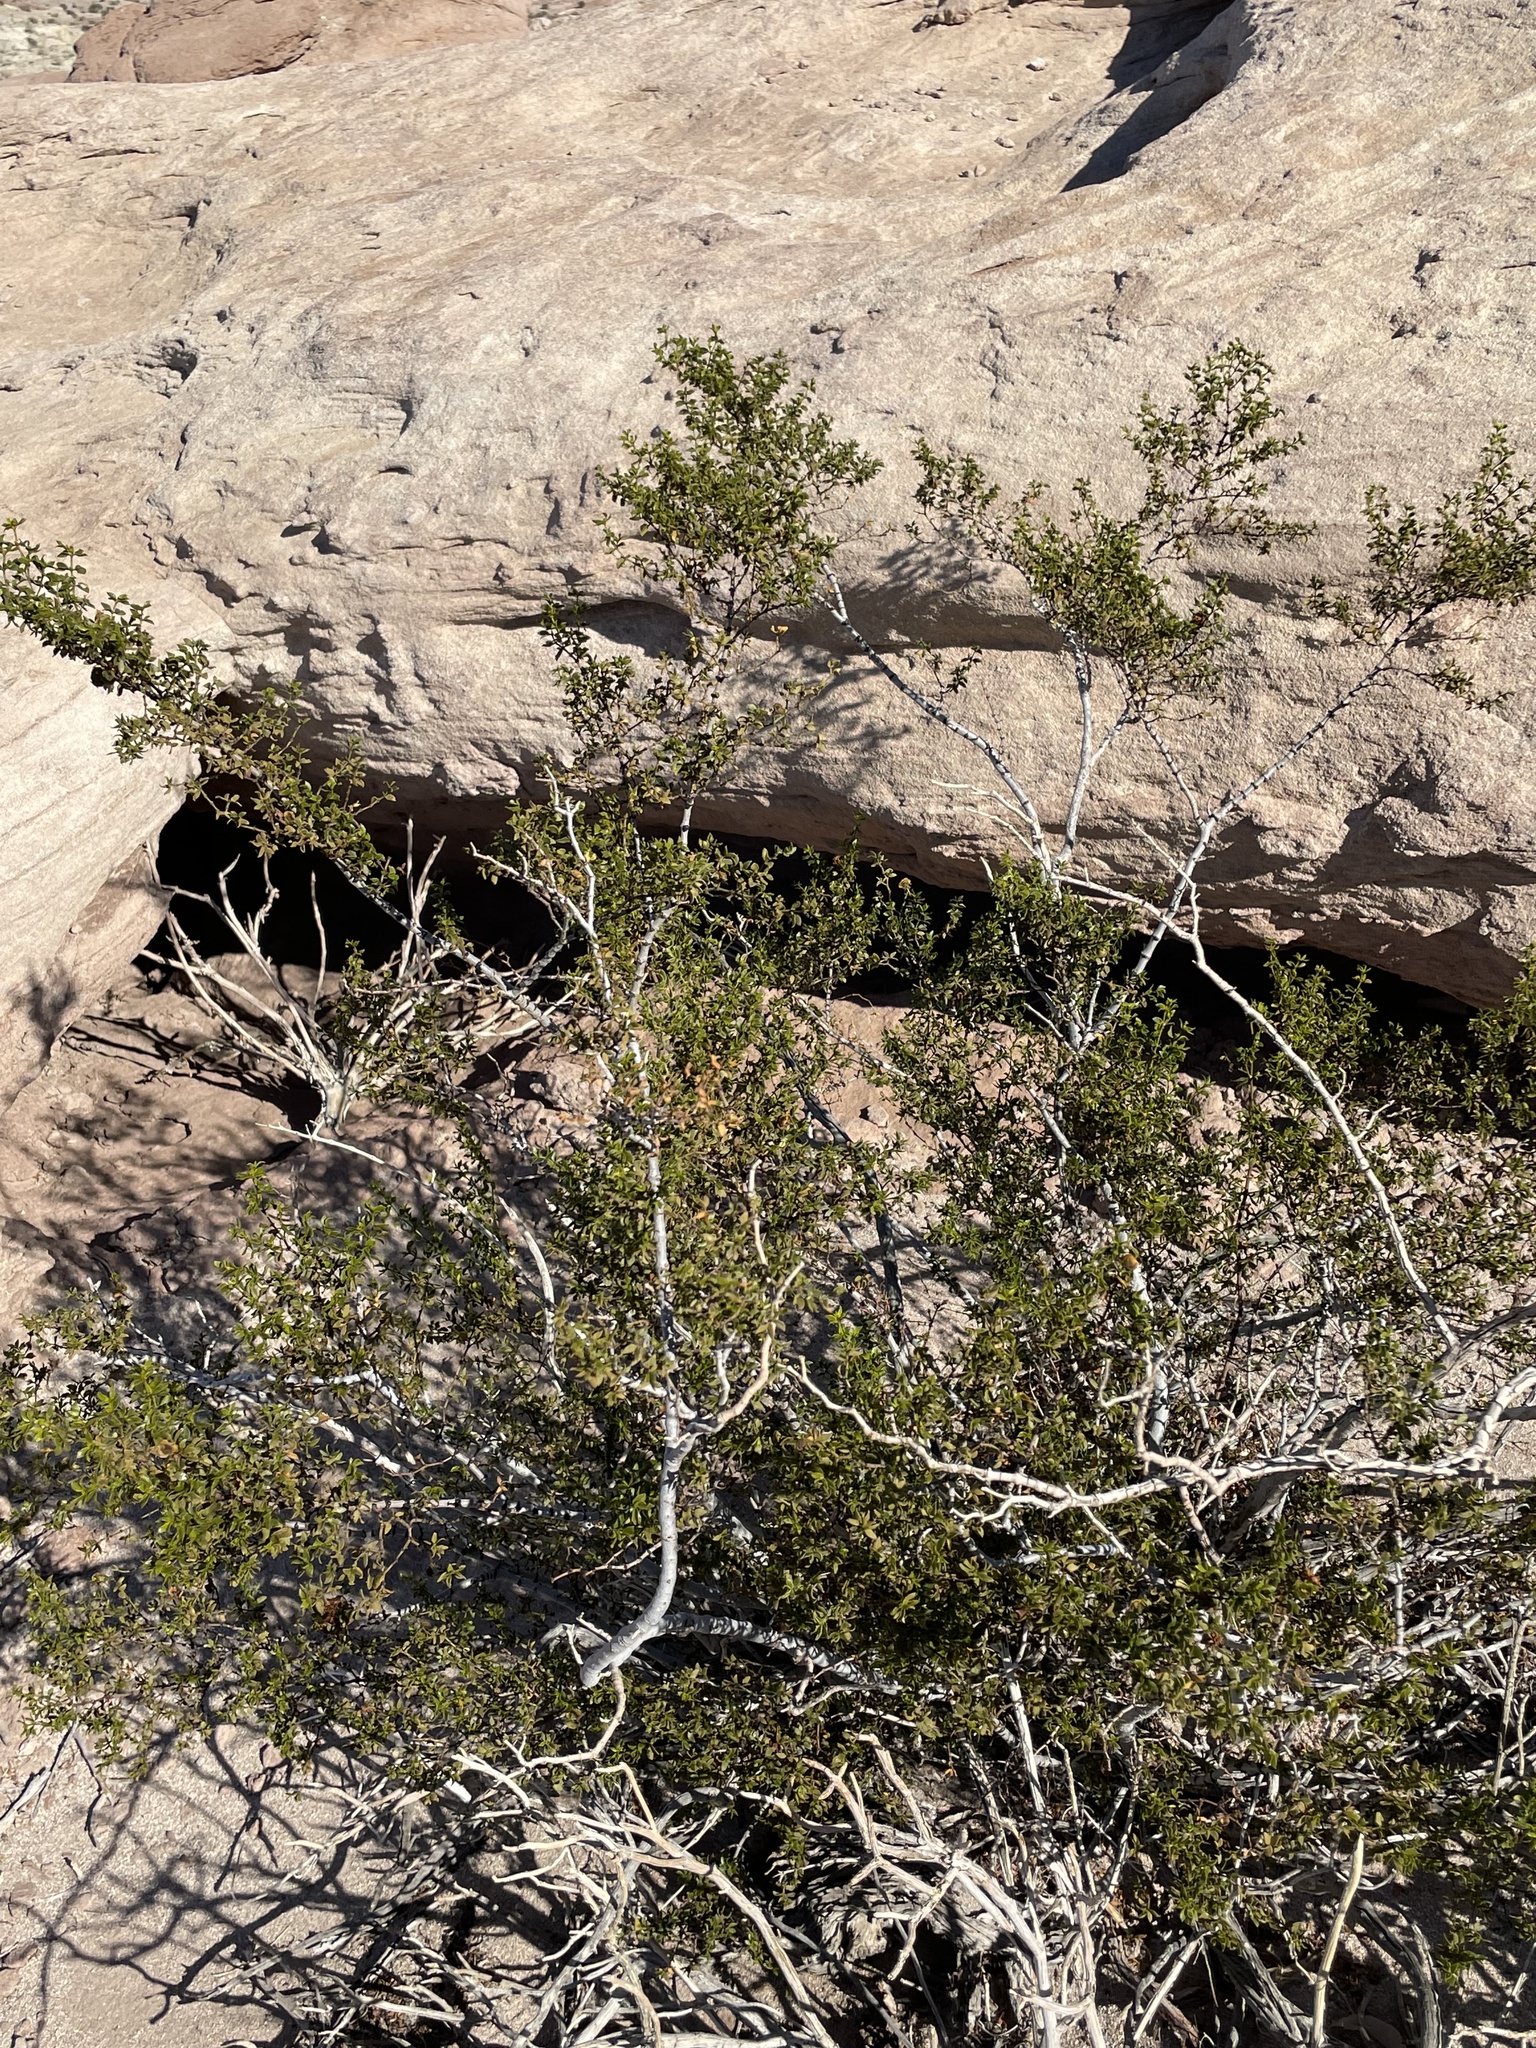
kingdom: Plantae
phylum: Tracheophyta
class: Magnoliopsida
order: Zygophyllales
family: Zygophyllaceae
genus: Larrea
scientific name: Larrea tridentata
